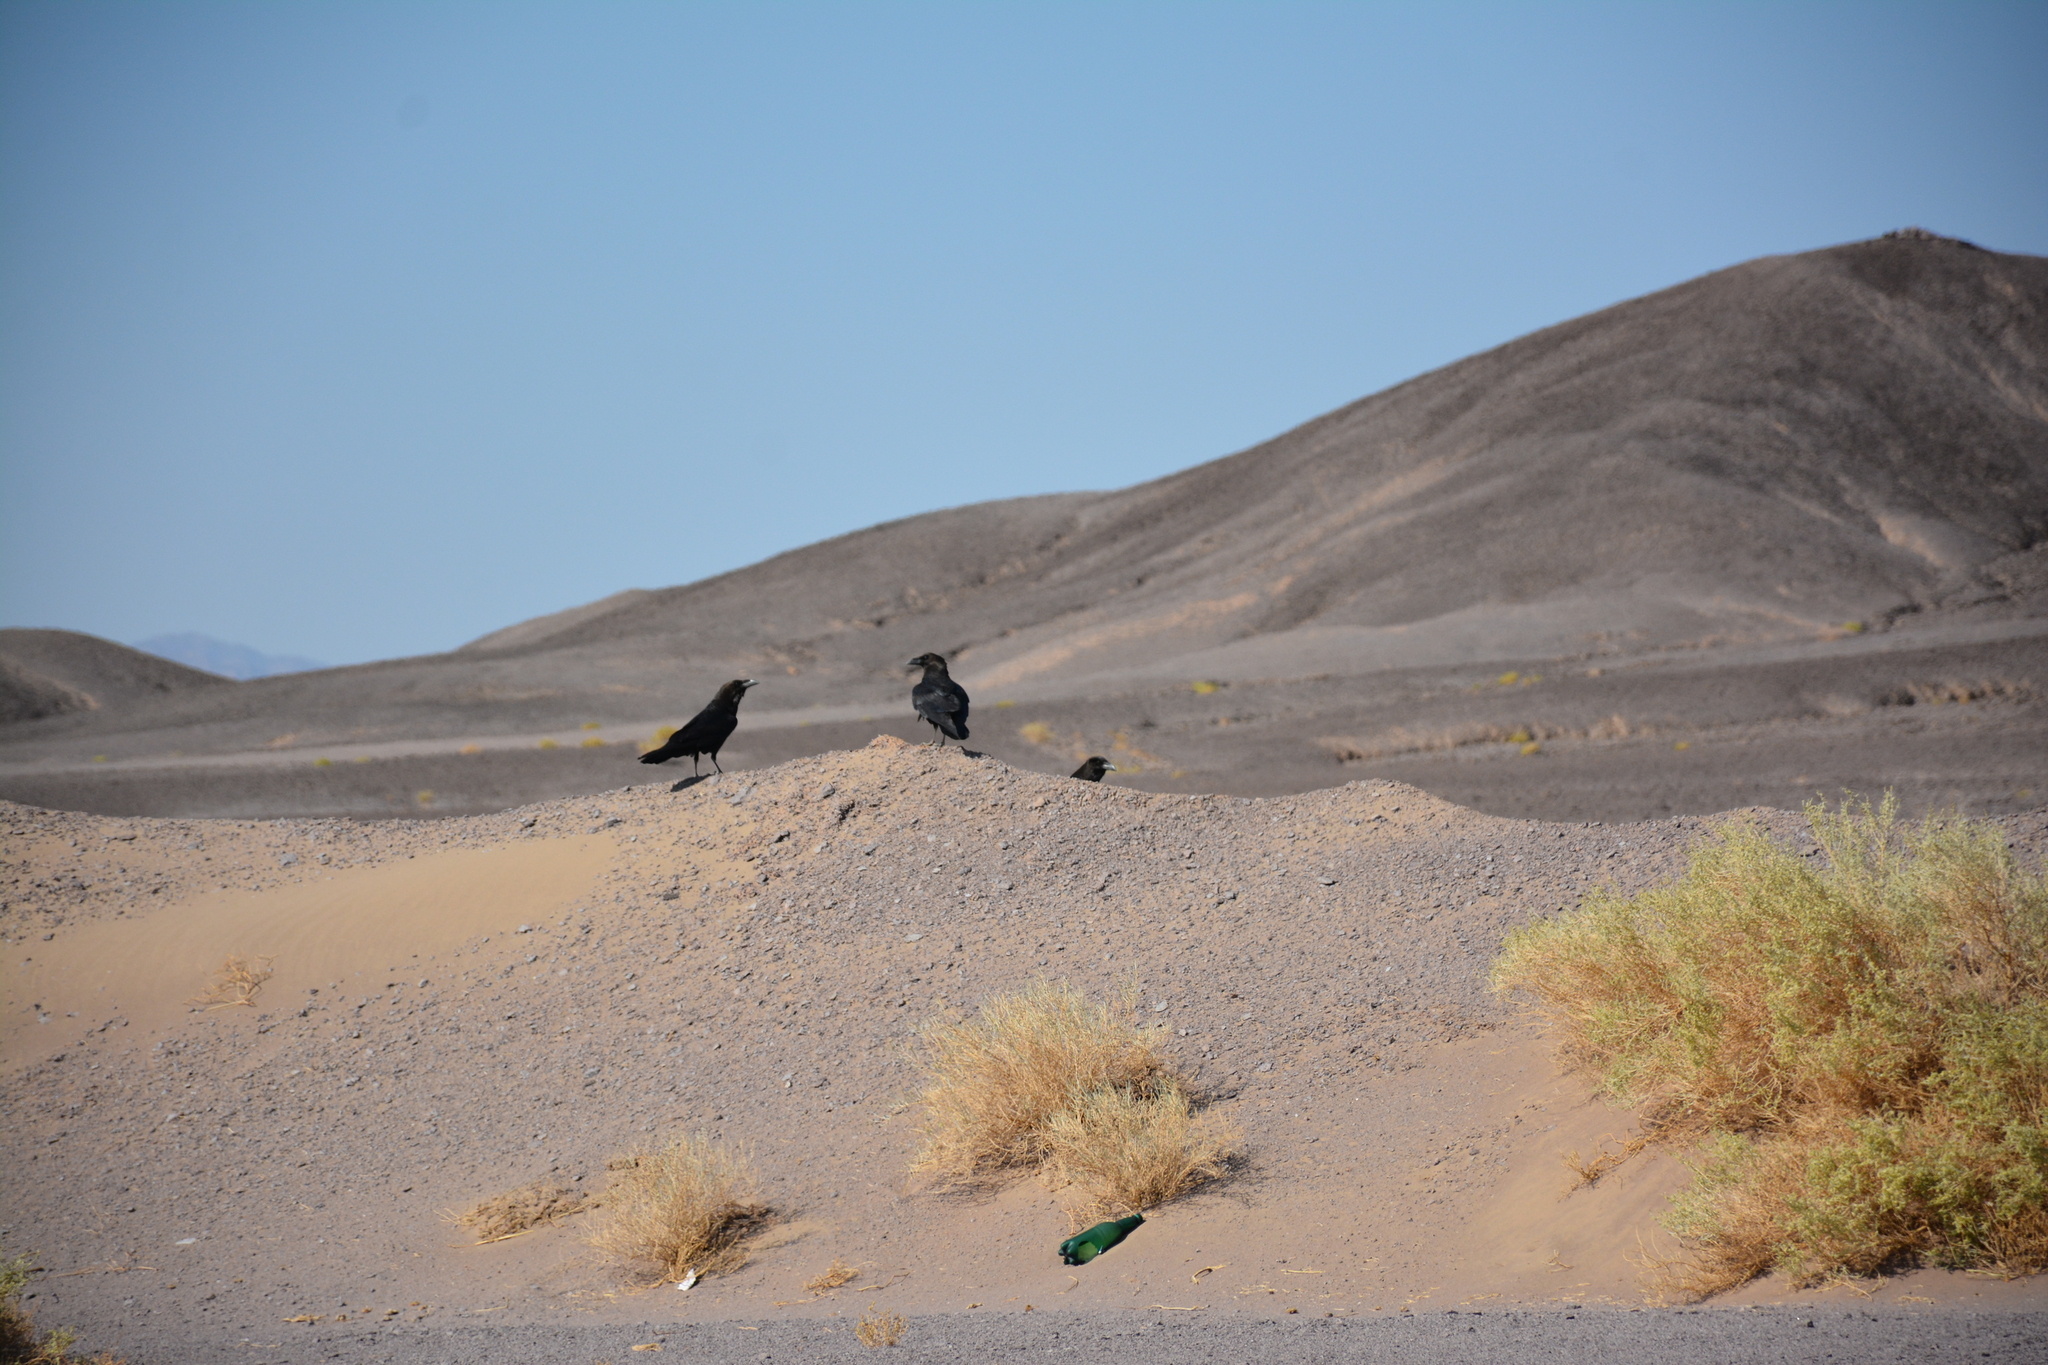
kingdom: Animalia
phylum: Chordata
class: Aves
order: Passeriformes
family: Corvidae
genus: Corvus
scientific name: Corvus corax
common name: Common raven
